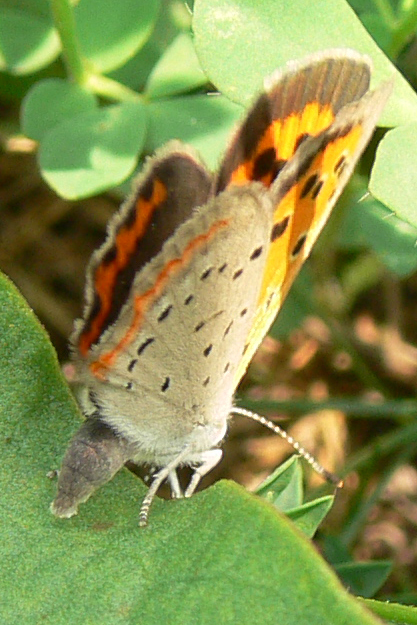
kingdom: Animalia
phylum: Arthropoda
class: Insecta
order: Lepidoptera
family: Lycaenidae
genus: Lycaena
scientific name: Lycaena hypophlaeas
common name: American copper
